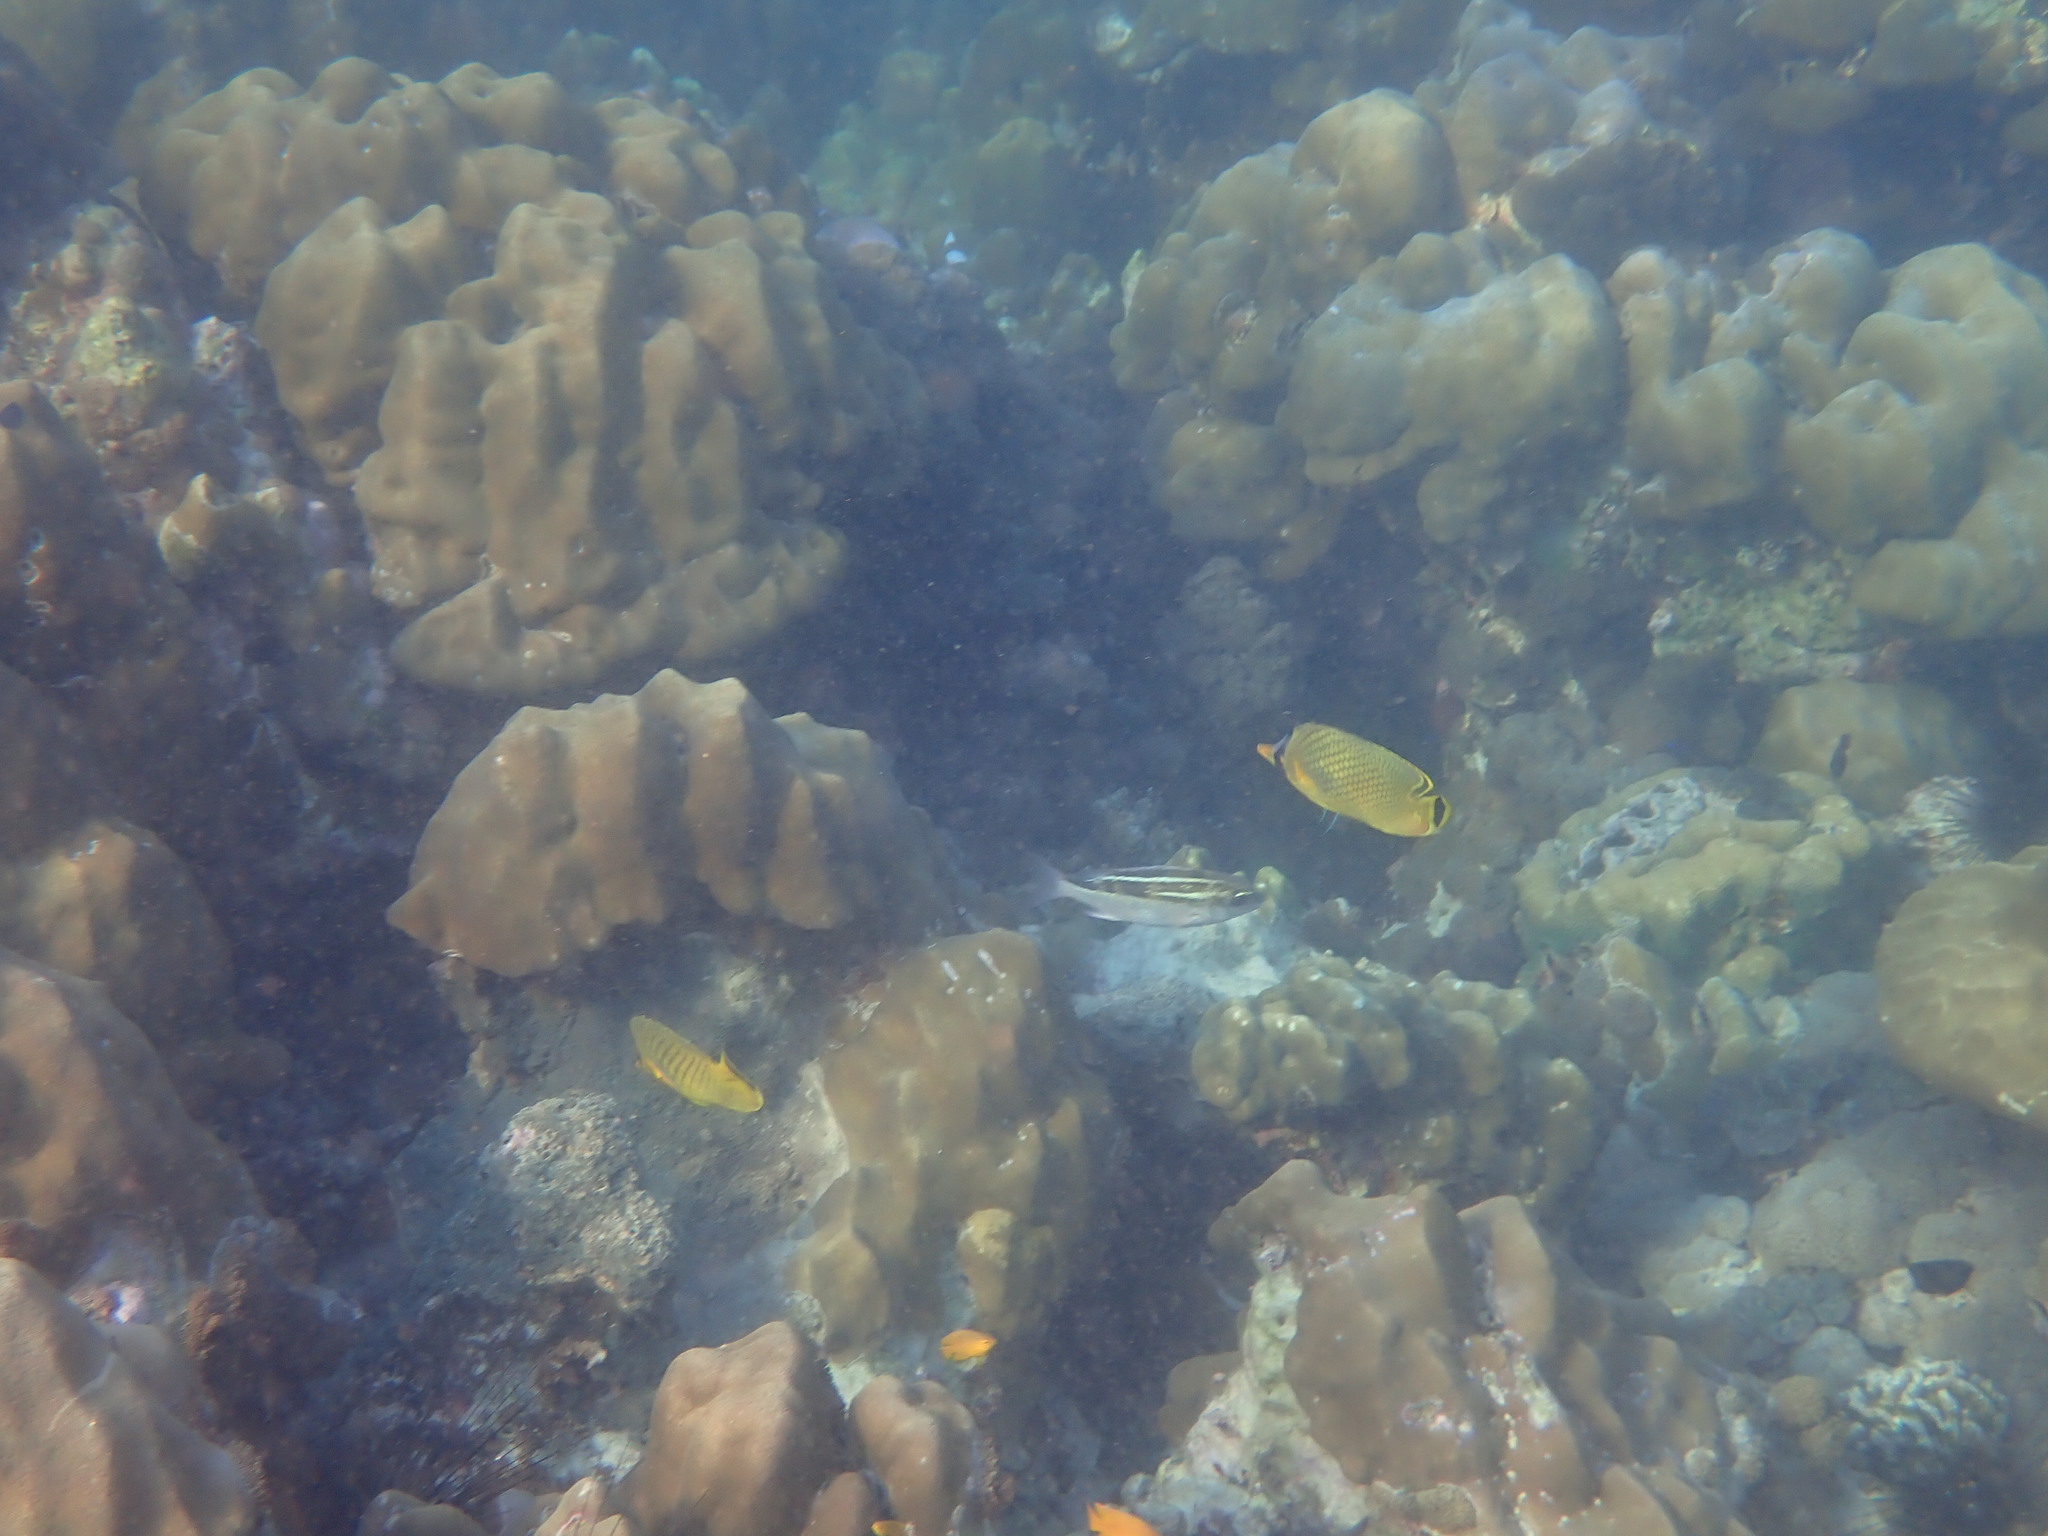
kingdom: Animalia
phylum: Chordata
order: Perciformes
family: Chaetodontidae
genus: Chaetodon
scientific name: Chaetodon rafflesii
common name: Latticed butterflyfish
